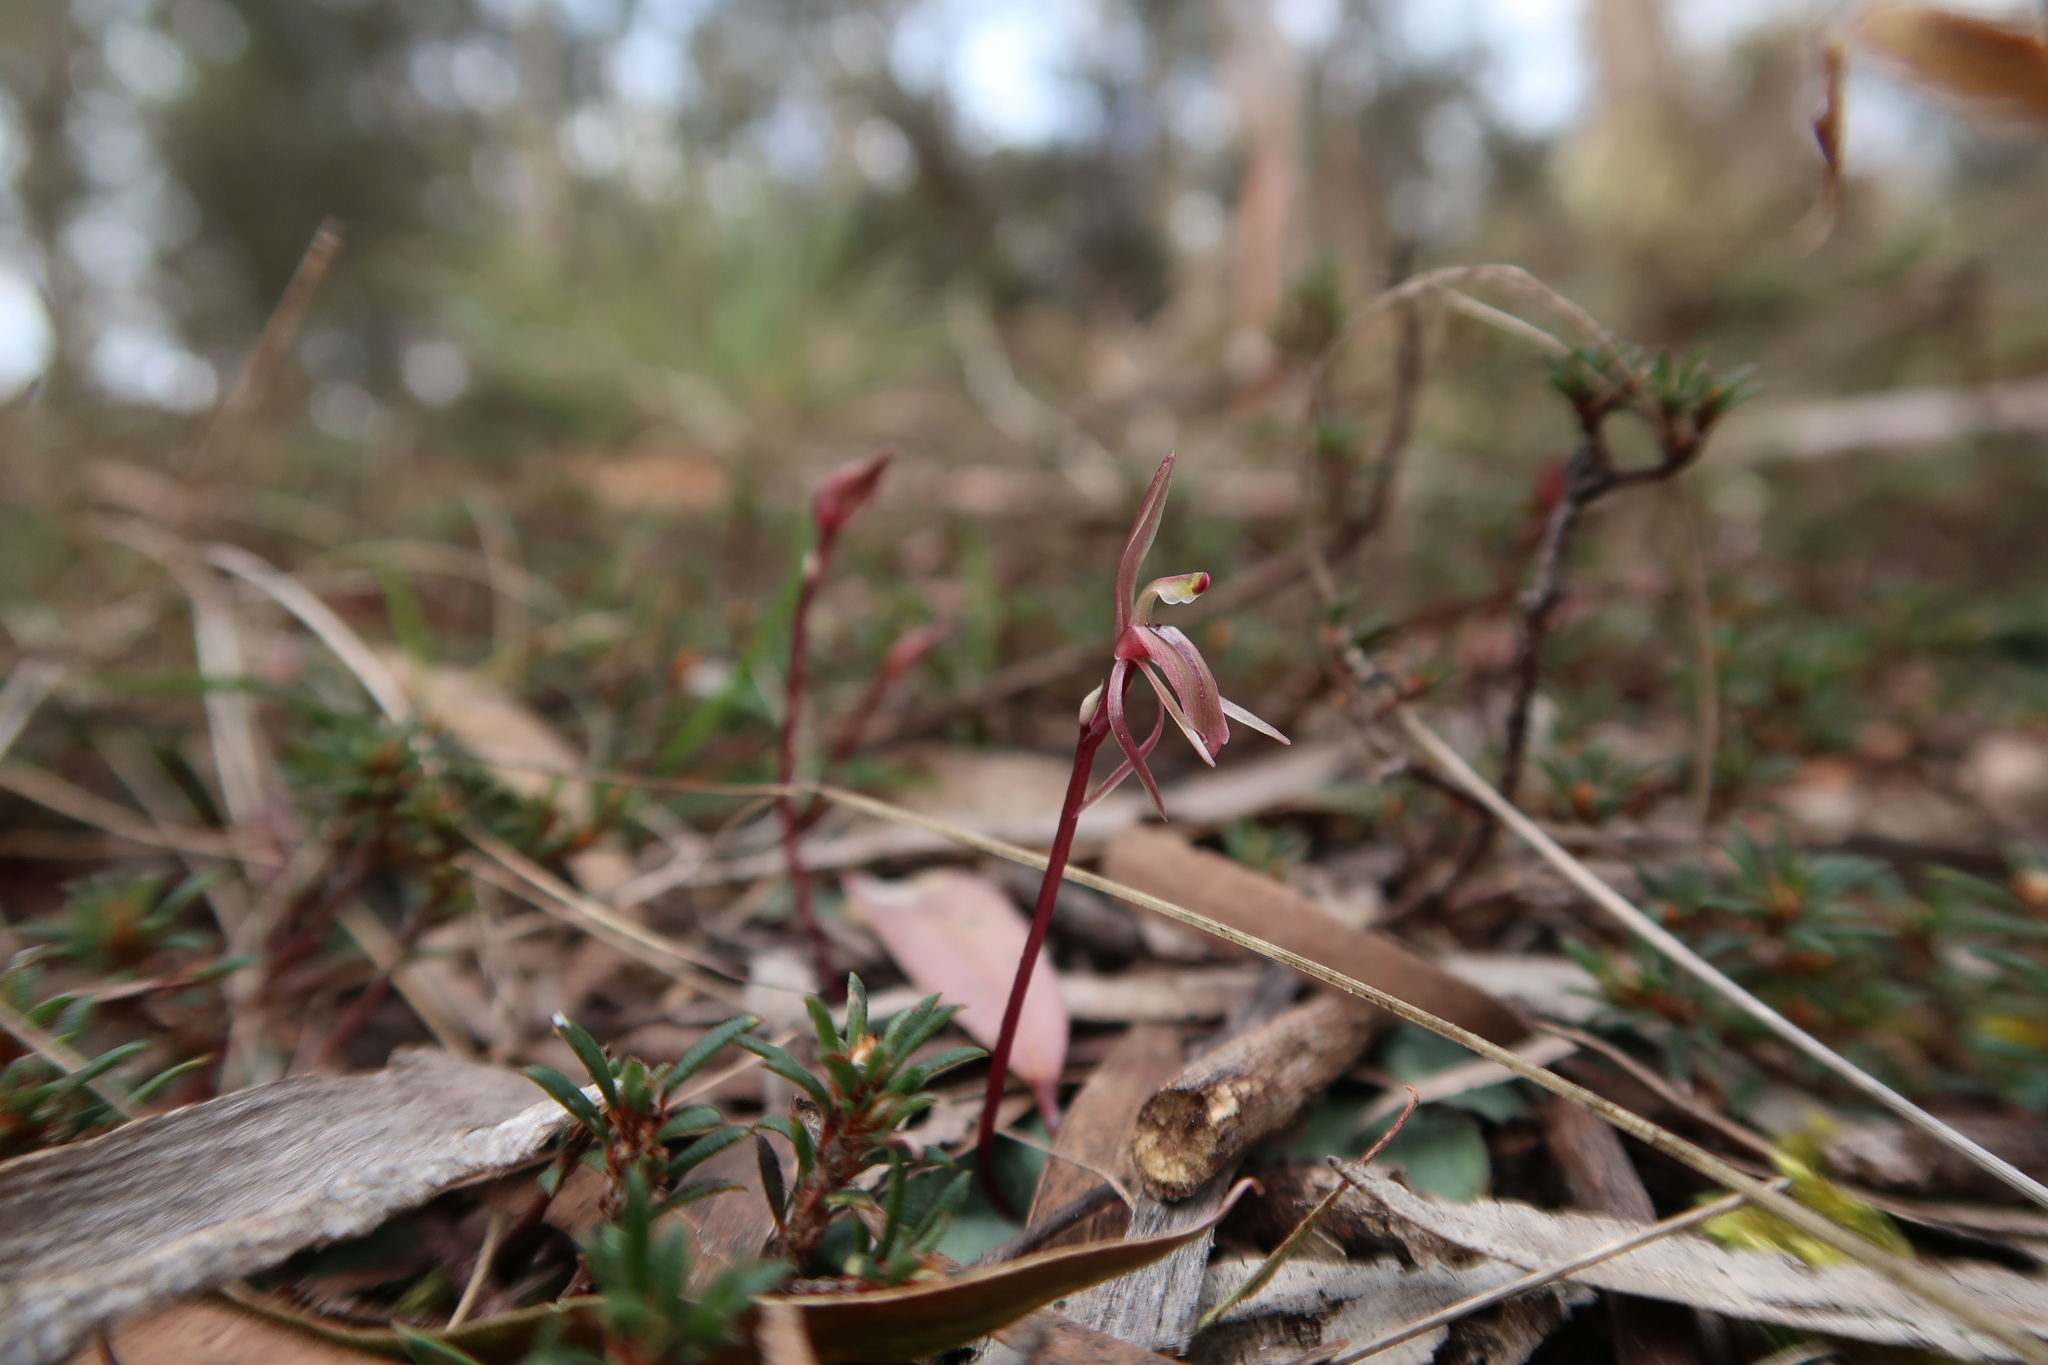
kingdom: Plantae
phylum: Tracheophyta
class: Liliopsida
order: Asparagales
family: Orchidaceae
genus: Cyrtostylis
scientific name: Cyrtostylis reniformis
